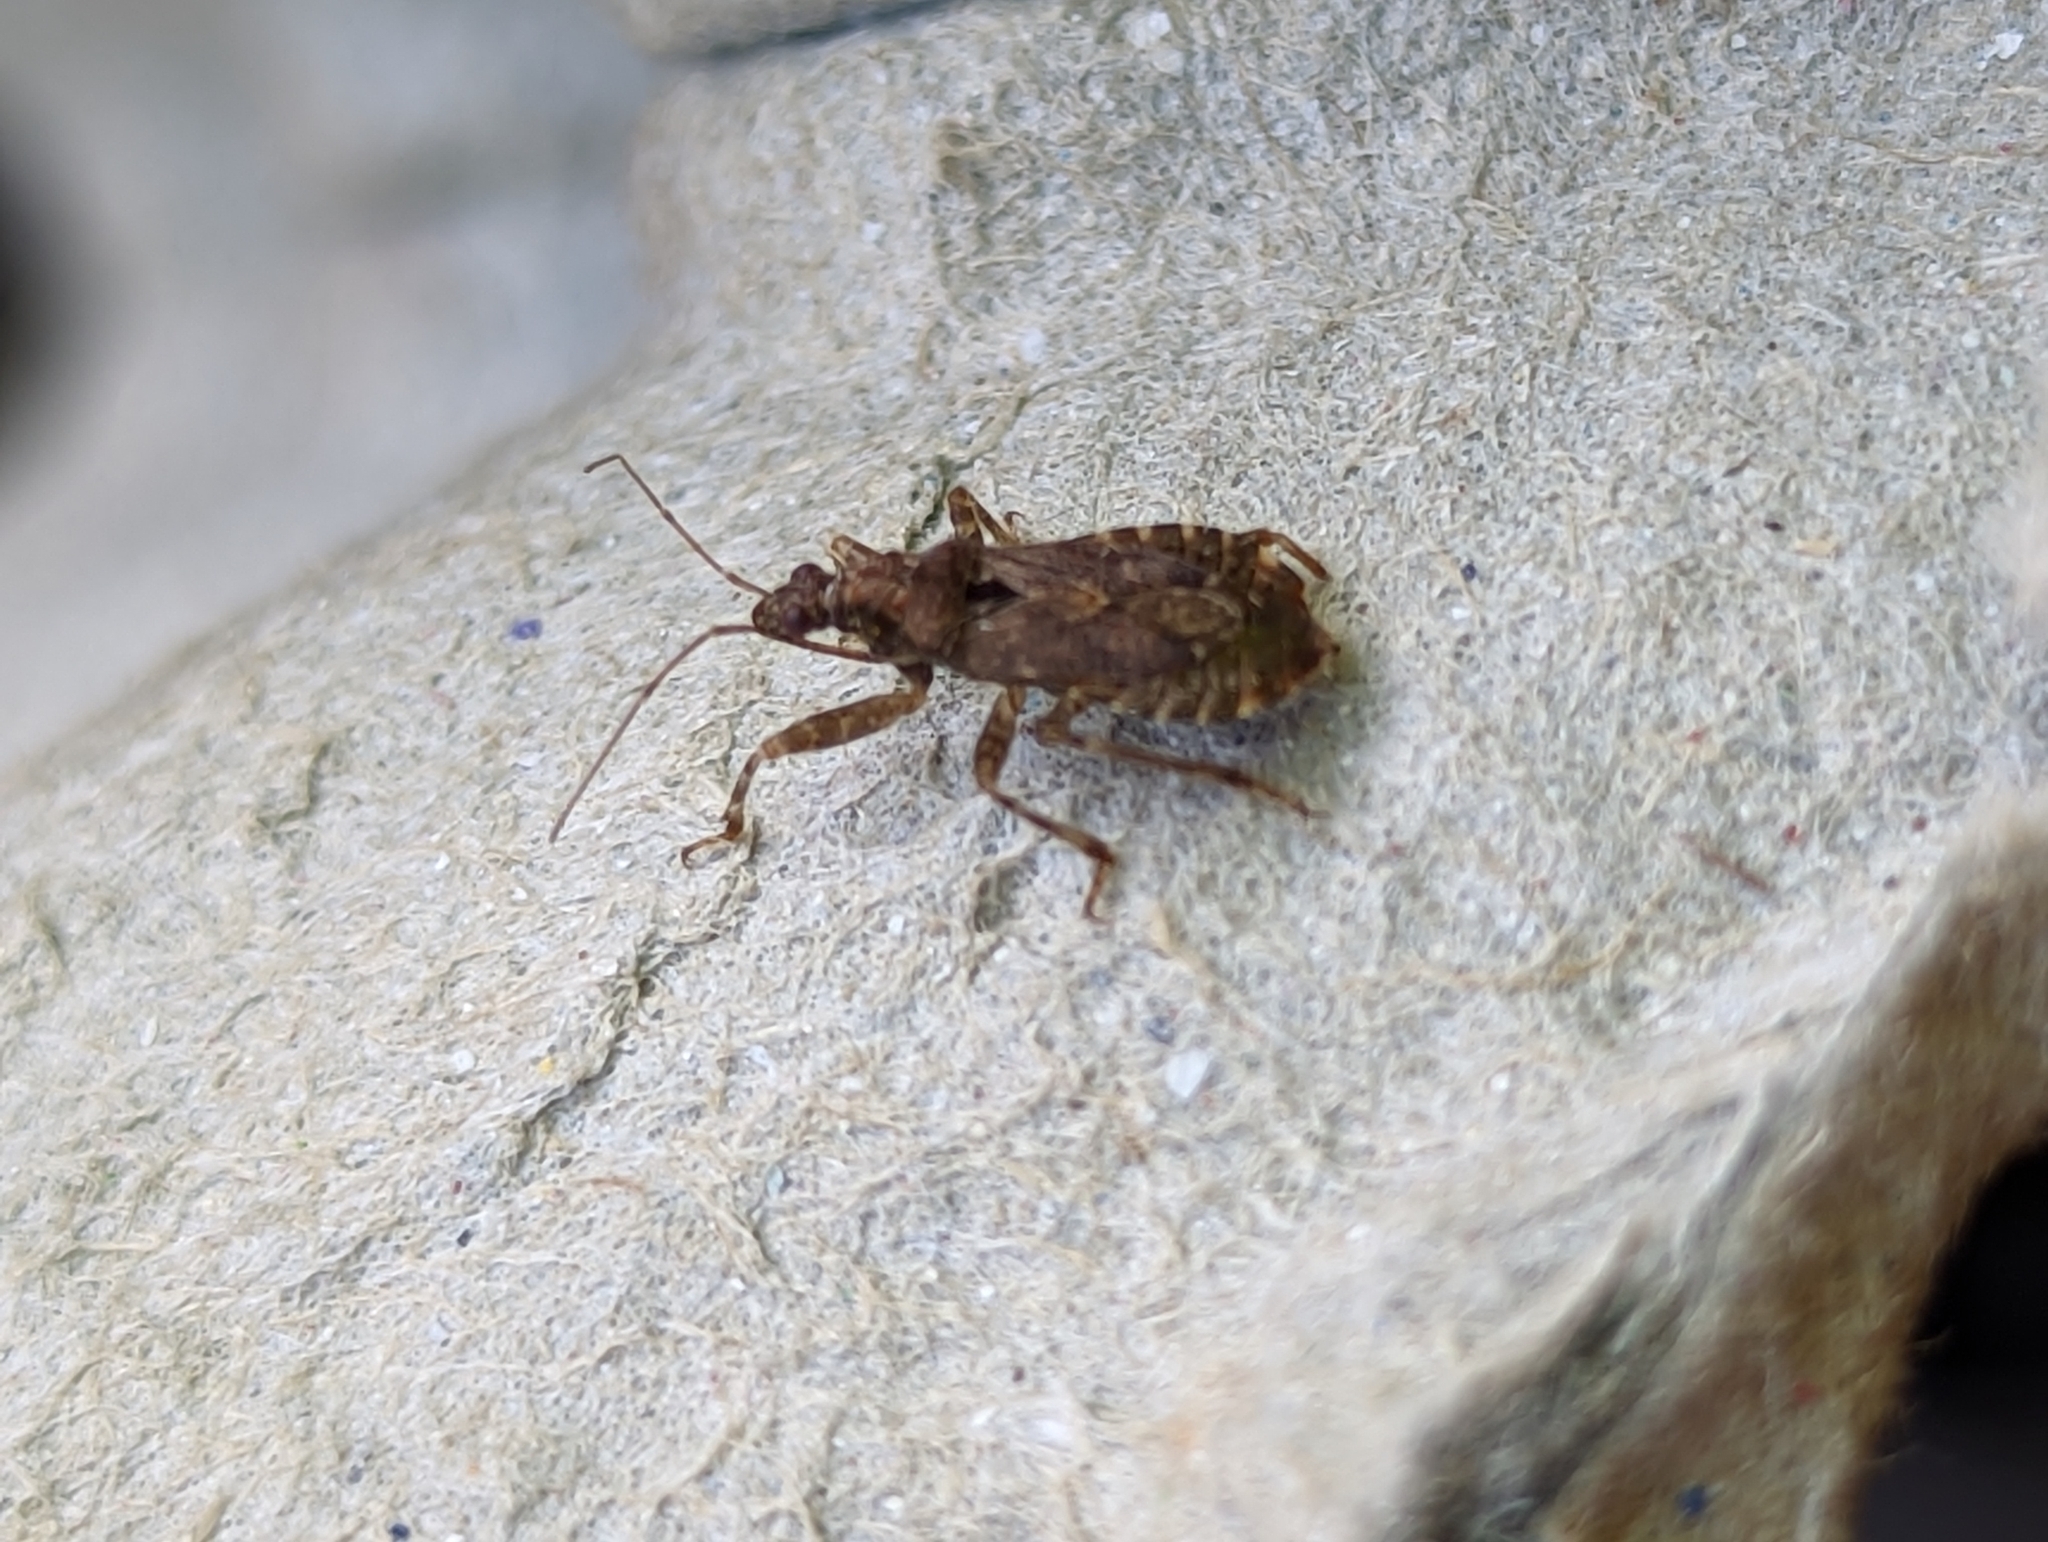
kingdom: Animalia
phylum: Arthropoda
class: Insecta
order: Hemiptera
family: Nabidae
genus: Himacerus
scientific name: Himacerus mirmicoides
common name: Ant damsel bug
